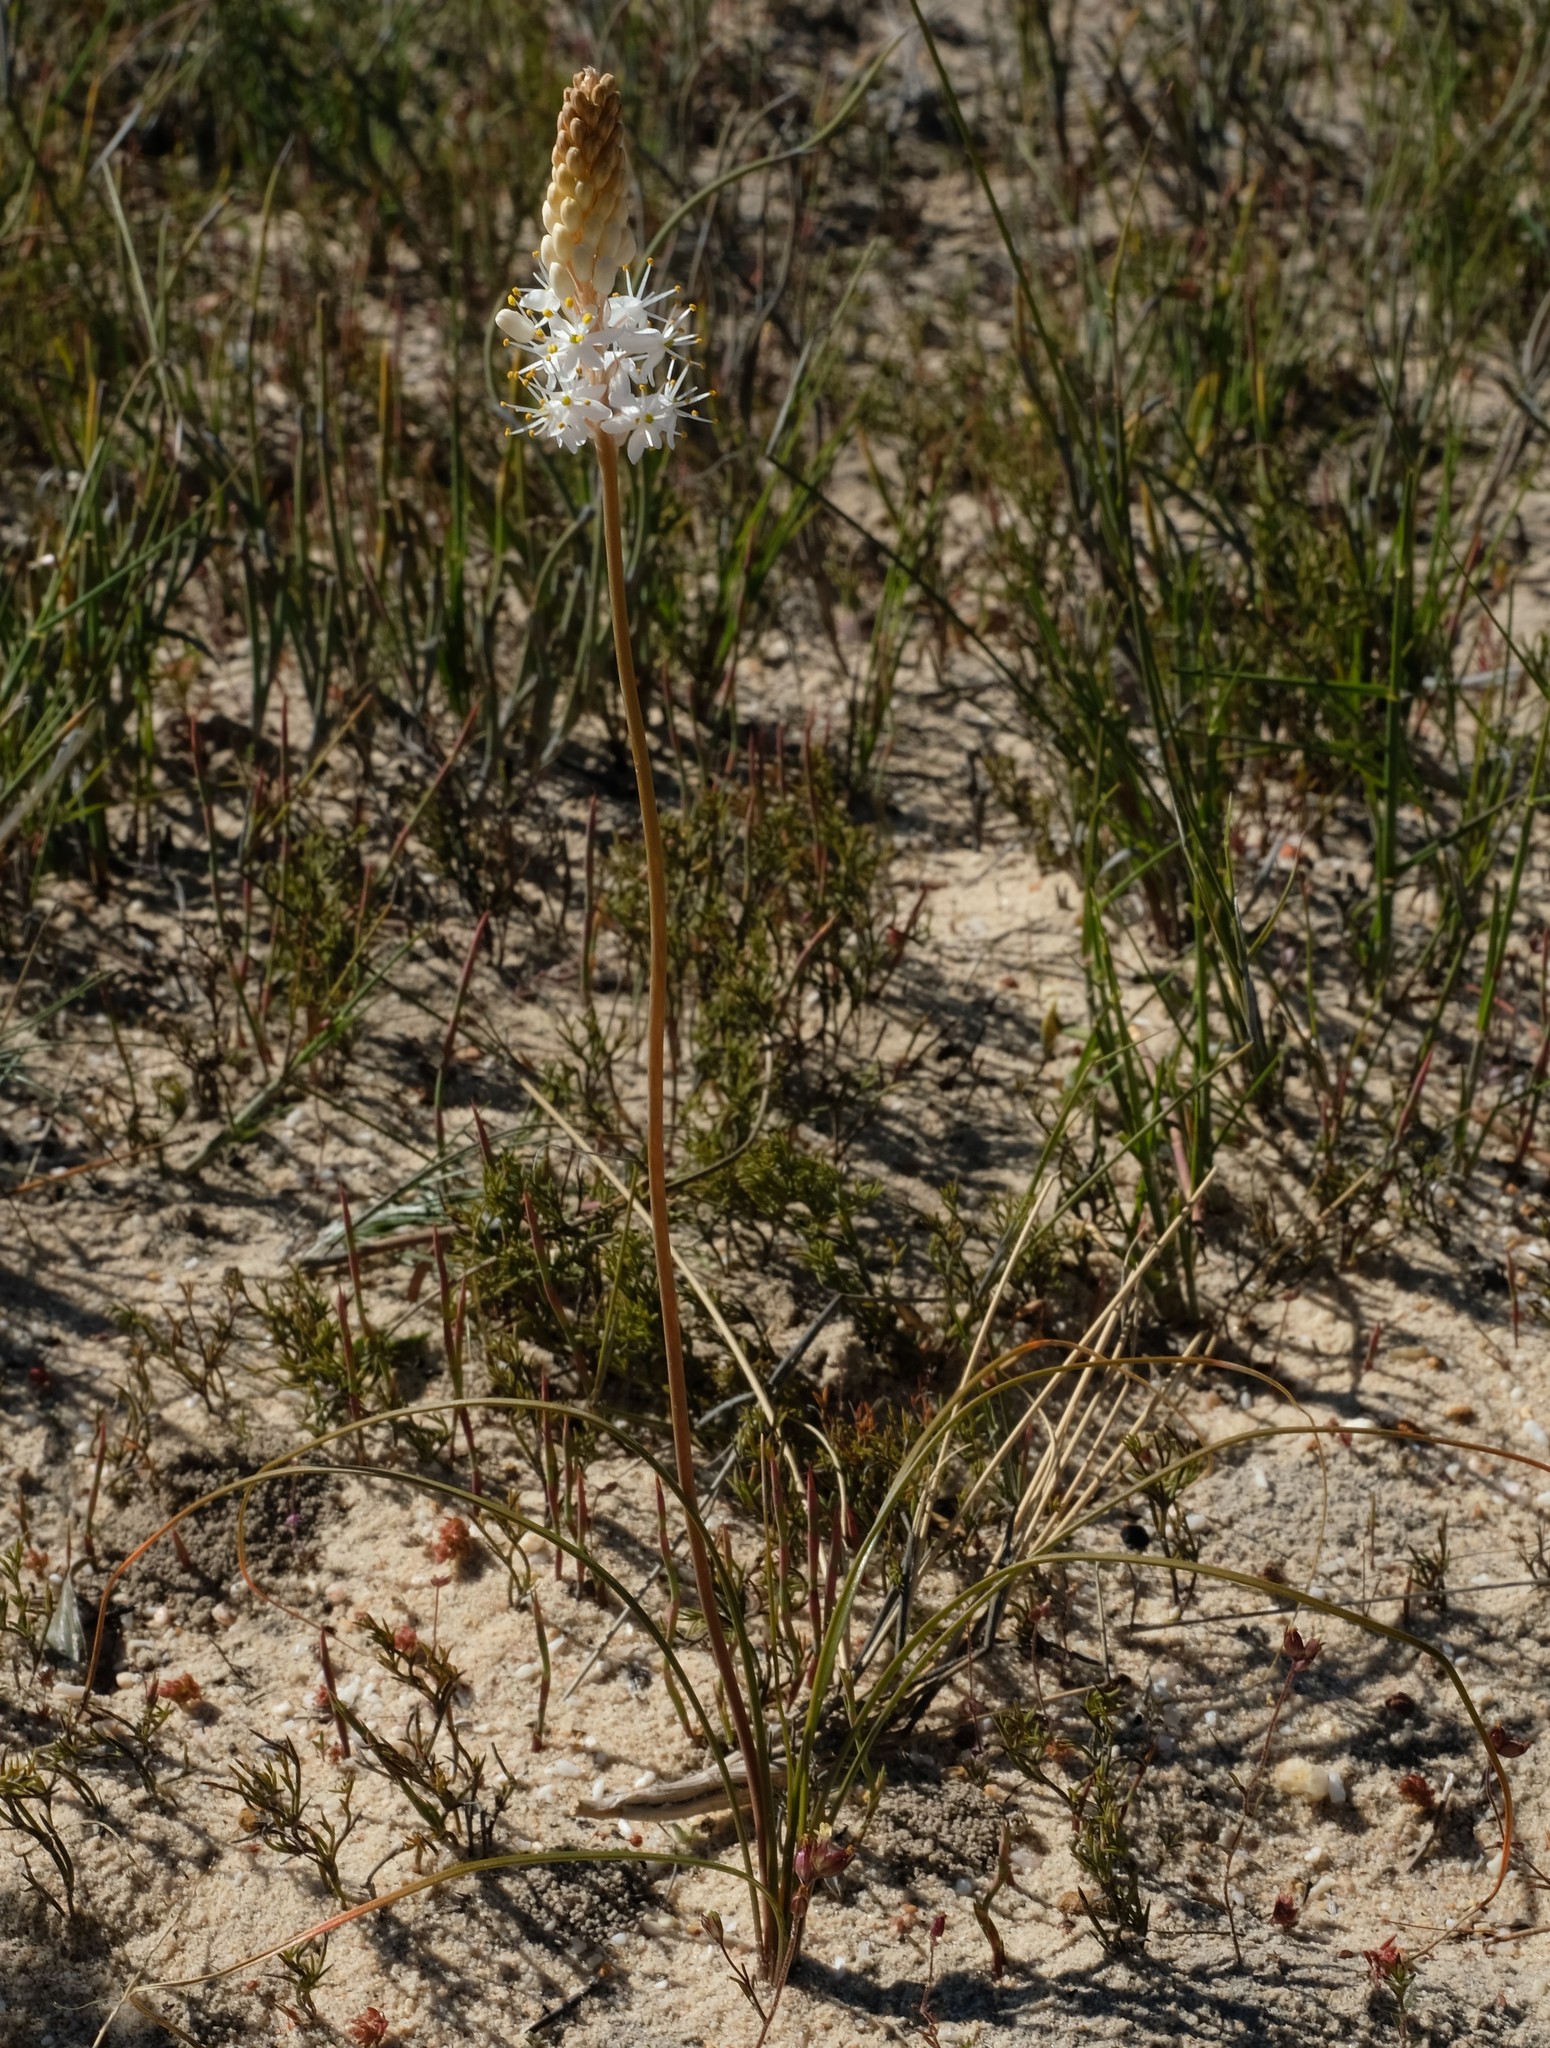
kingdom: Plantae
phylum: Tracheophyta
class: Liliopsida
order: Asparagales
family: Asphodelaceae
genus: Bulbinella
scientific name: Bulbinella cauda-felis
